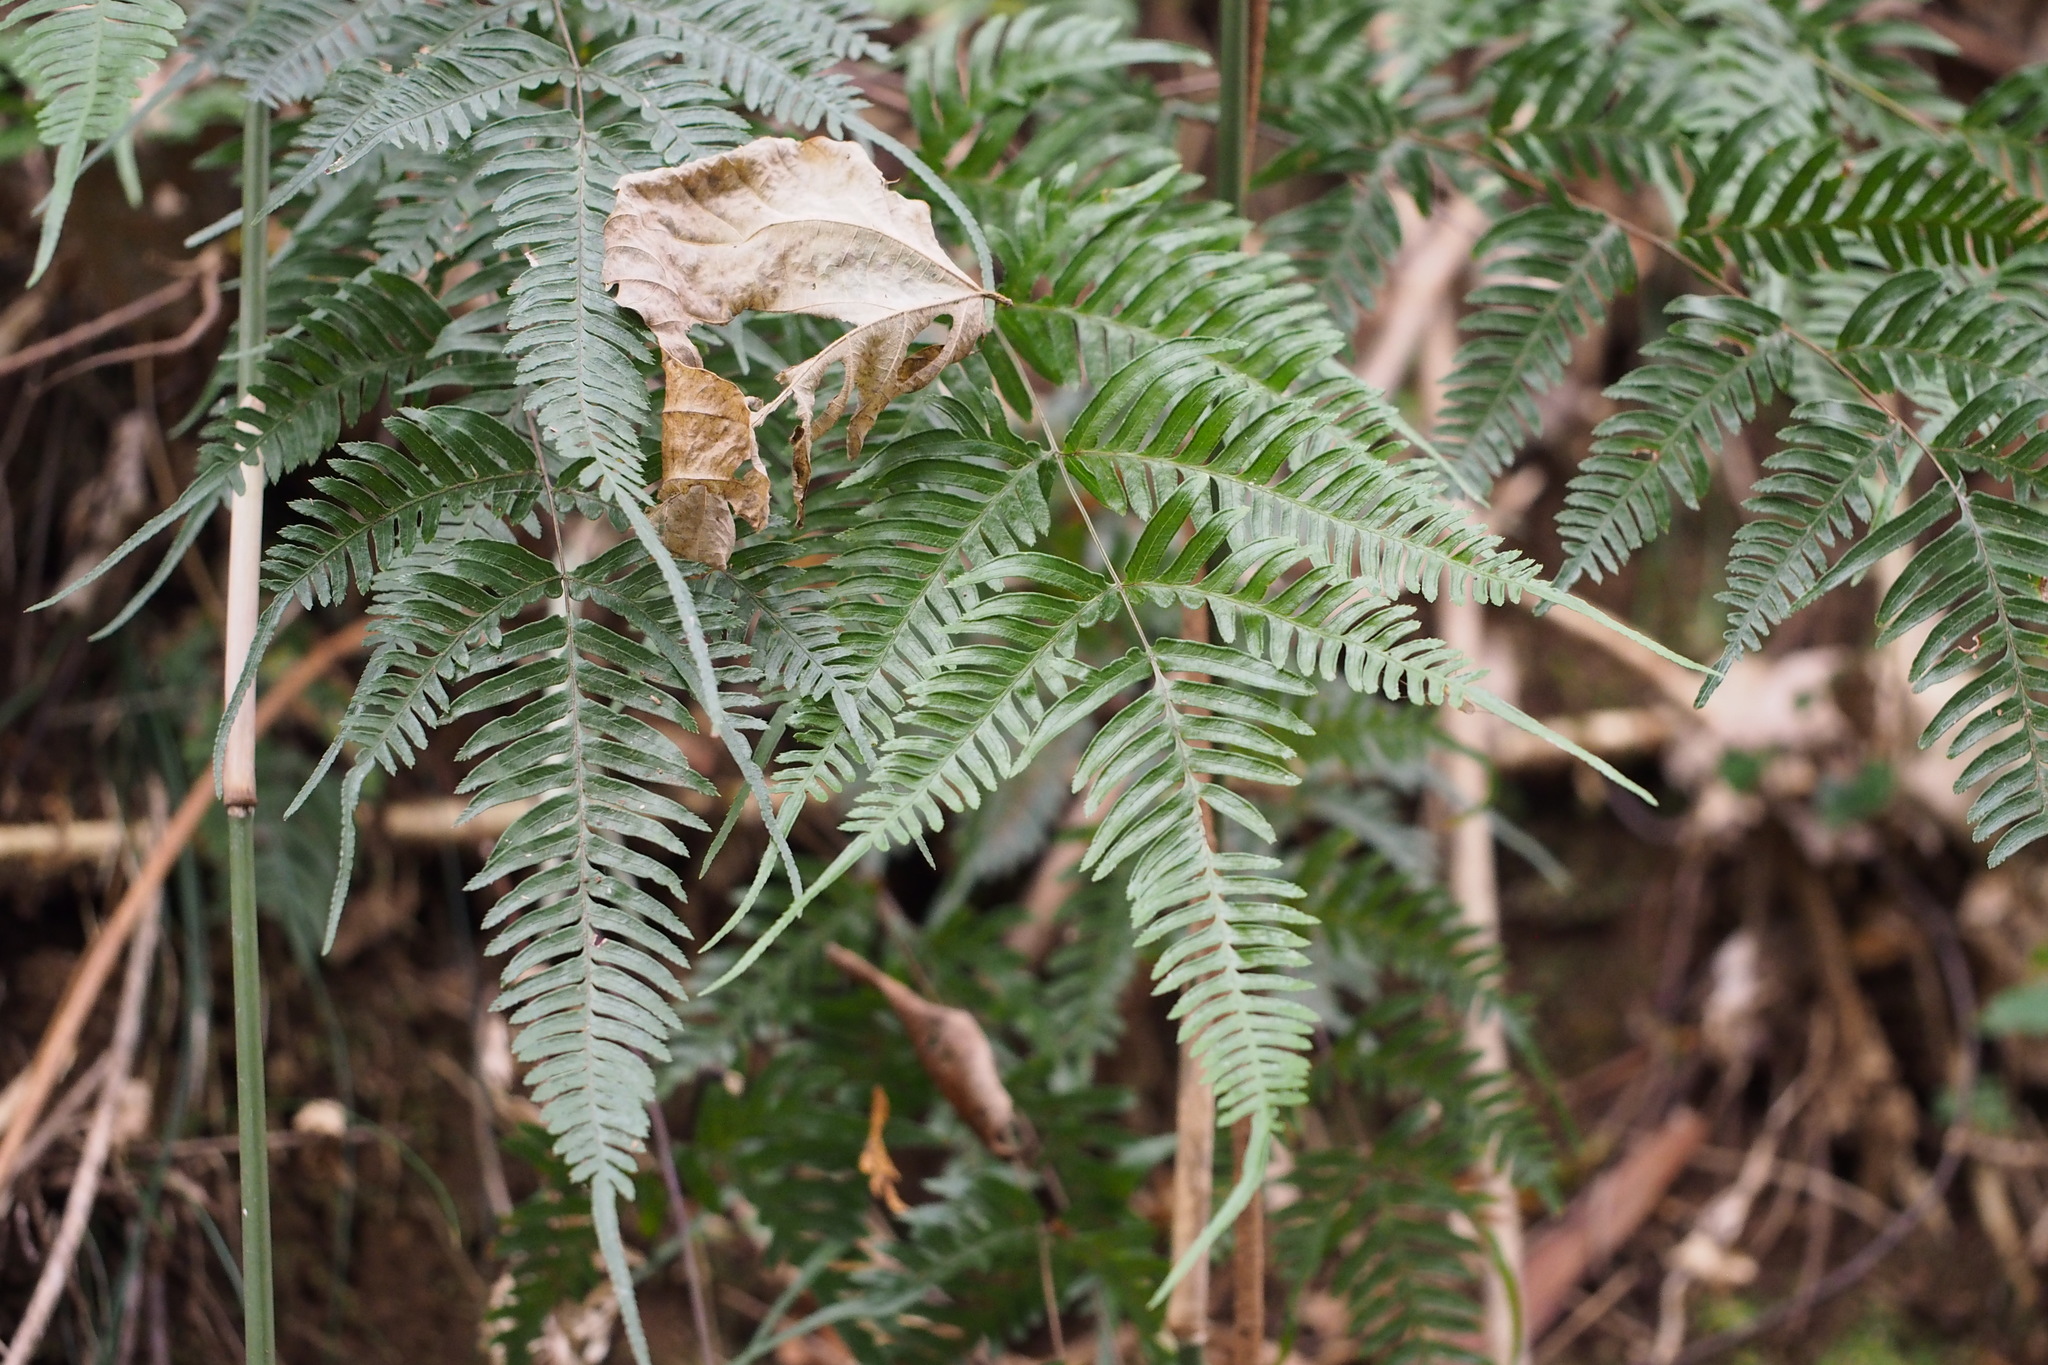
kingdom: Plantae
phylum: Tracheophyta
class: Polypodiopsida
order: Polypodiales
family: Pteridaceae
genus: Pteris
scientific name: Pteris dispar
